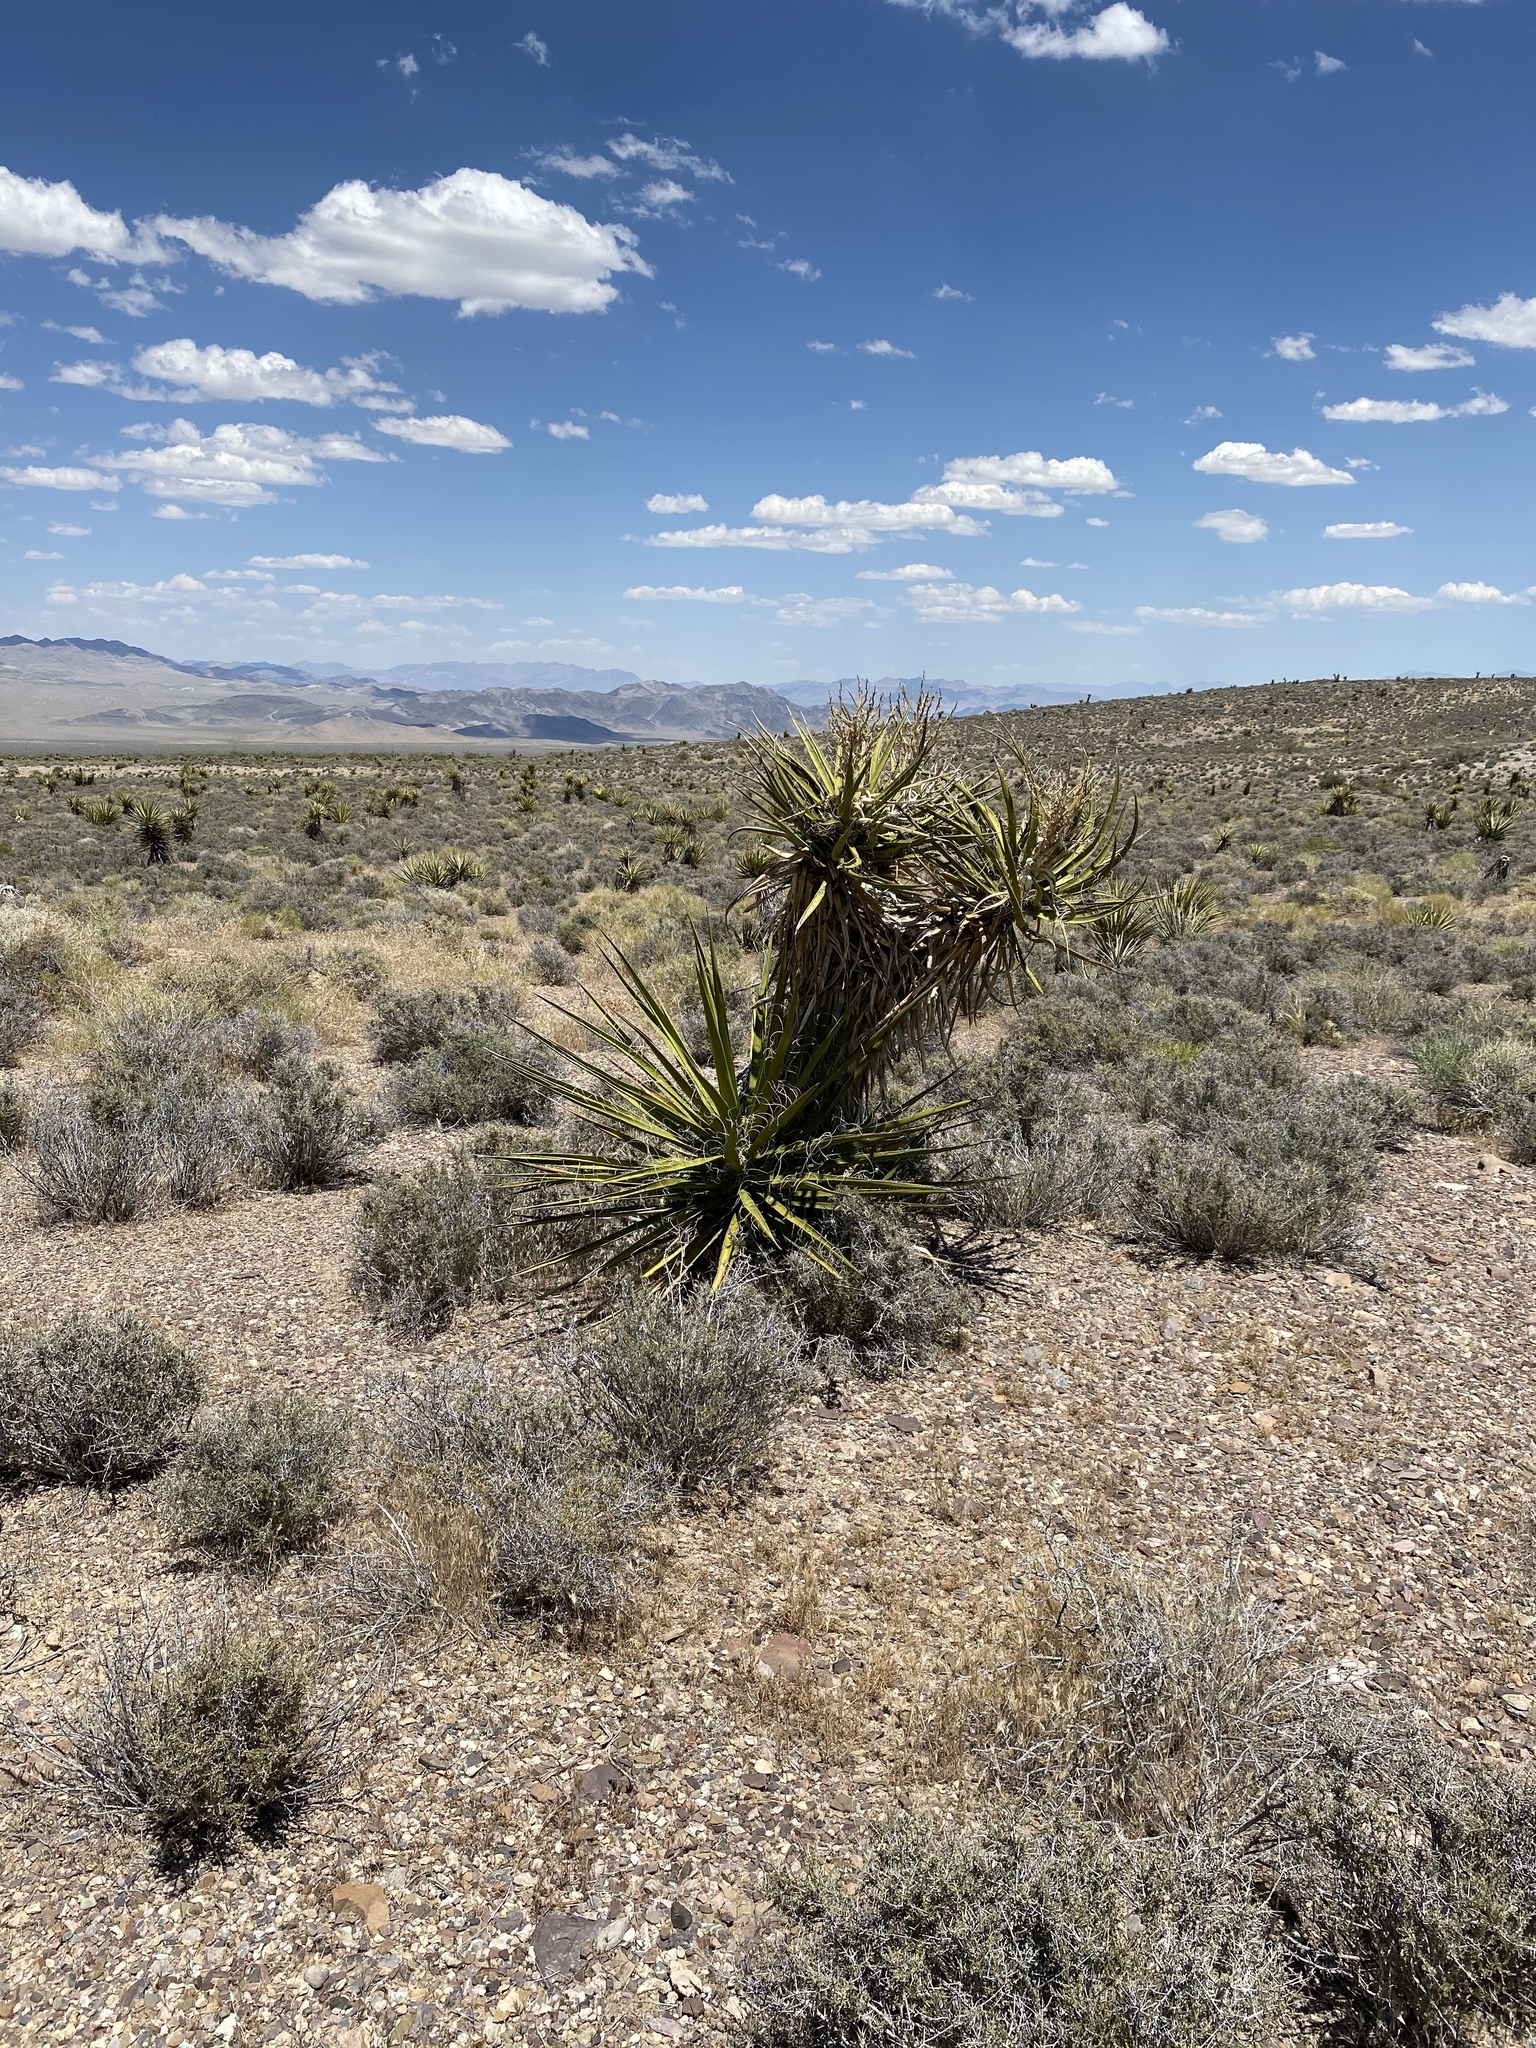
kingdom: Plantae
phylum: Tracheophyta
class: Liliopsida
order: Asparagales
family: Asparagaceae
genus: Yucca
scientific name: Yucca schidigera
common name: Mojave yucca
